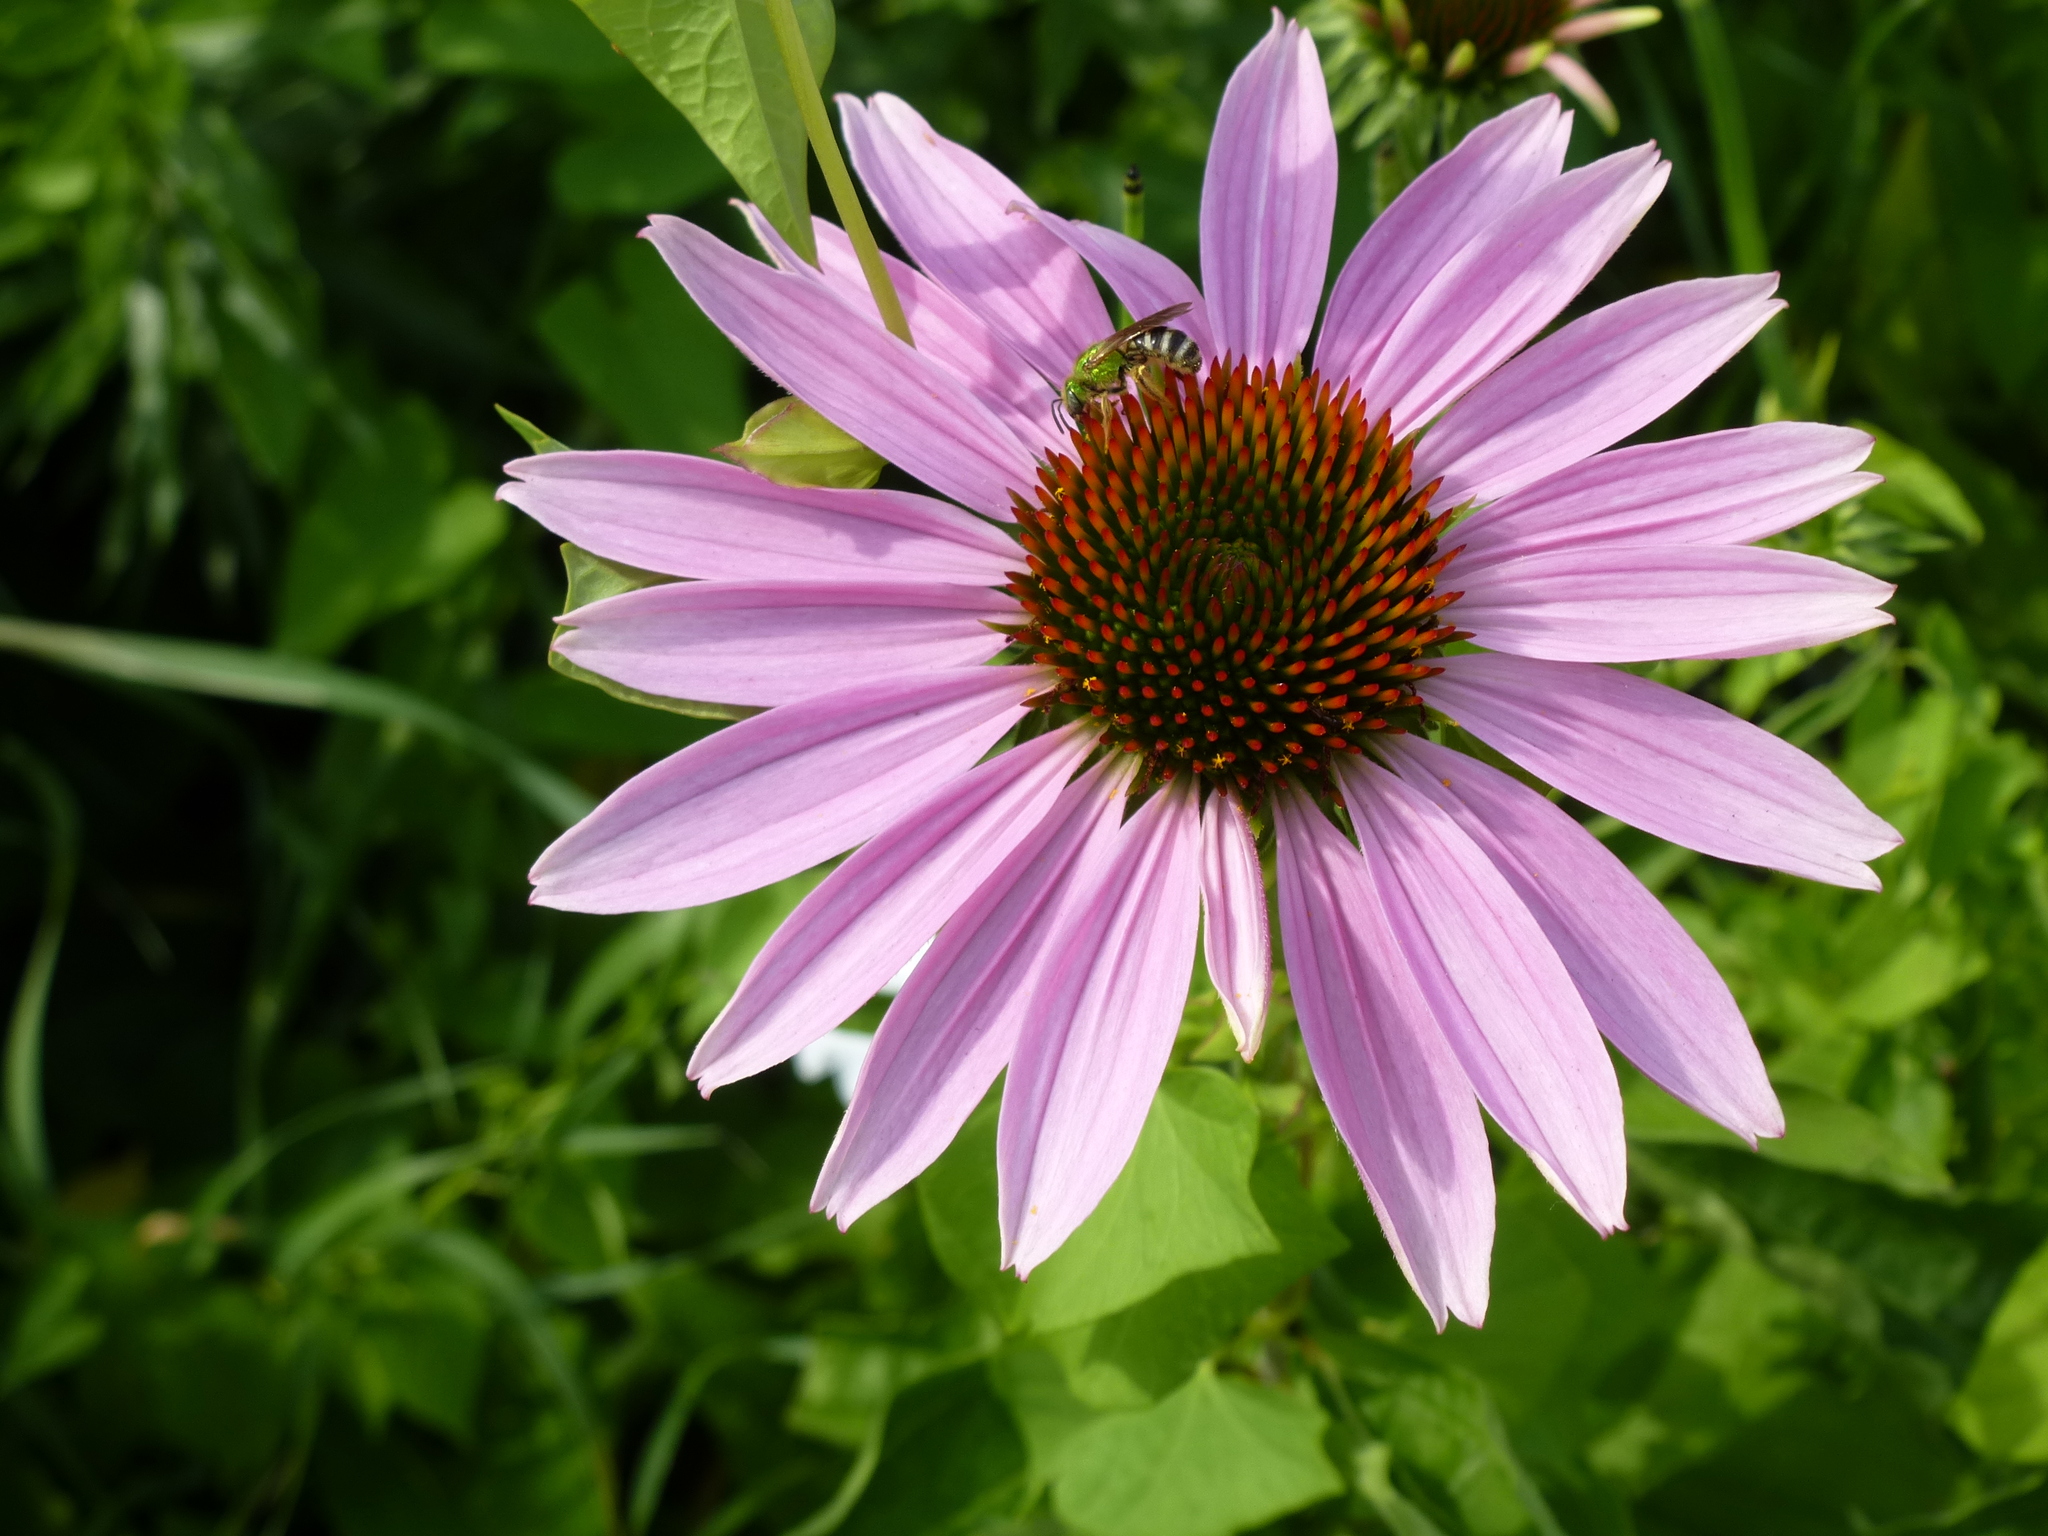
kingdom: Animalia
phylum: Arthropoda
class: Insecta
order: Hymenoptera
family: Halictidae
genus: Agapostemon
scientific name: Agapostemon virescens
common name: Bicolored striped sweat bee
